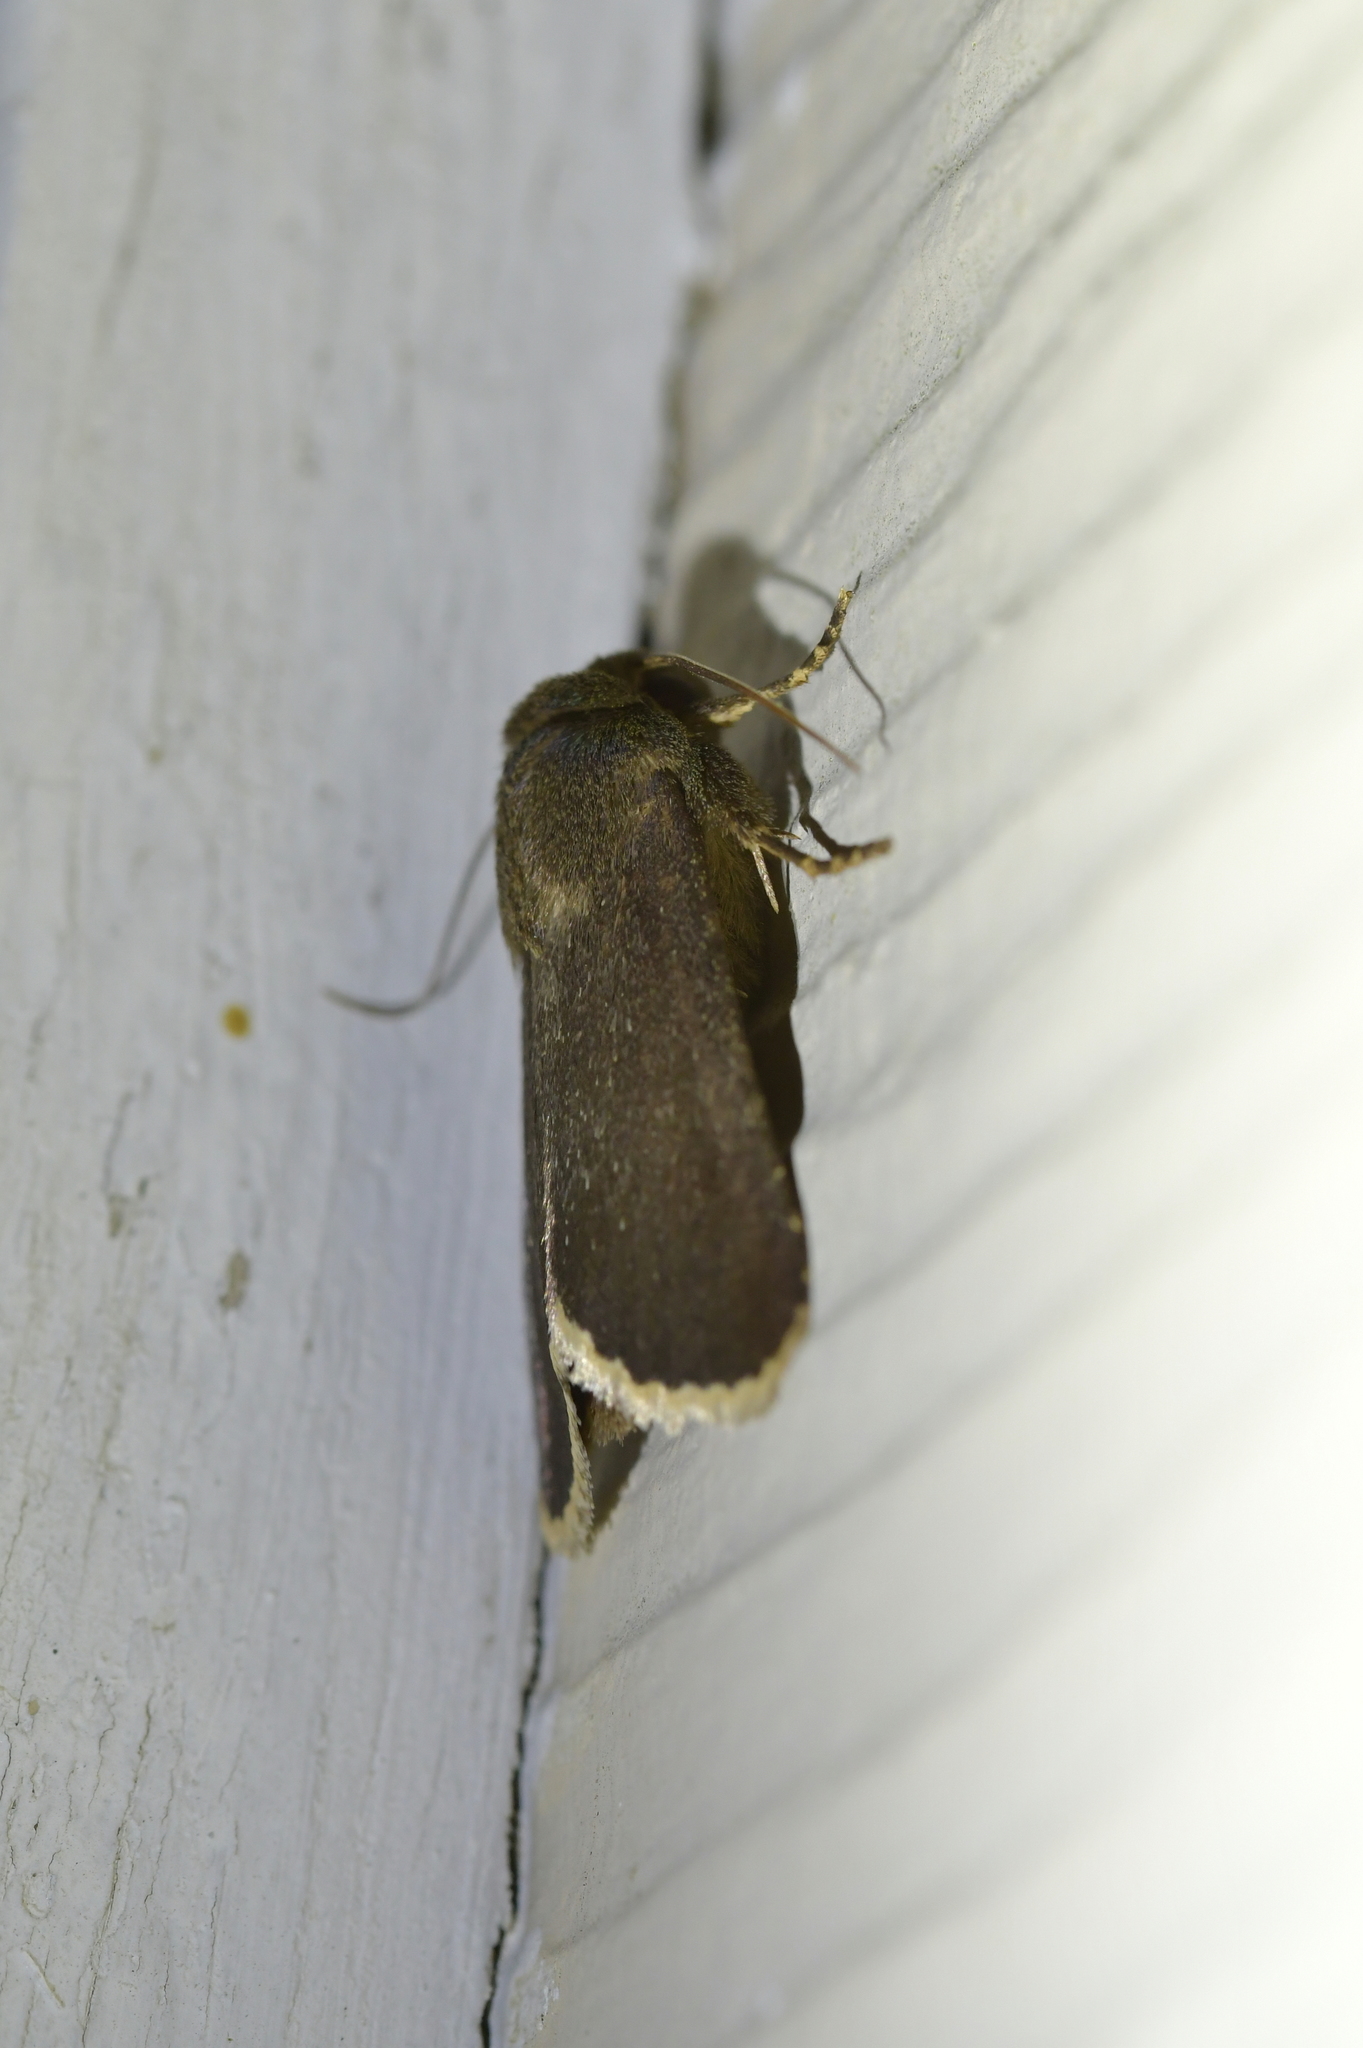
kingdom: Animalia
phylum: Arthropoda
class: Insecta
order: Lepidoptera
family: Noctuidae
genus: Bityla
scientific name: Bityla sericea
